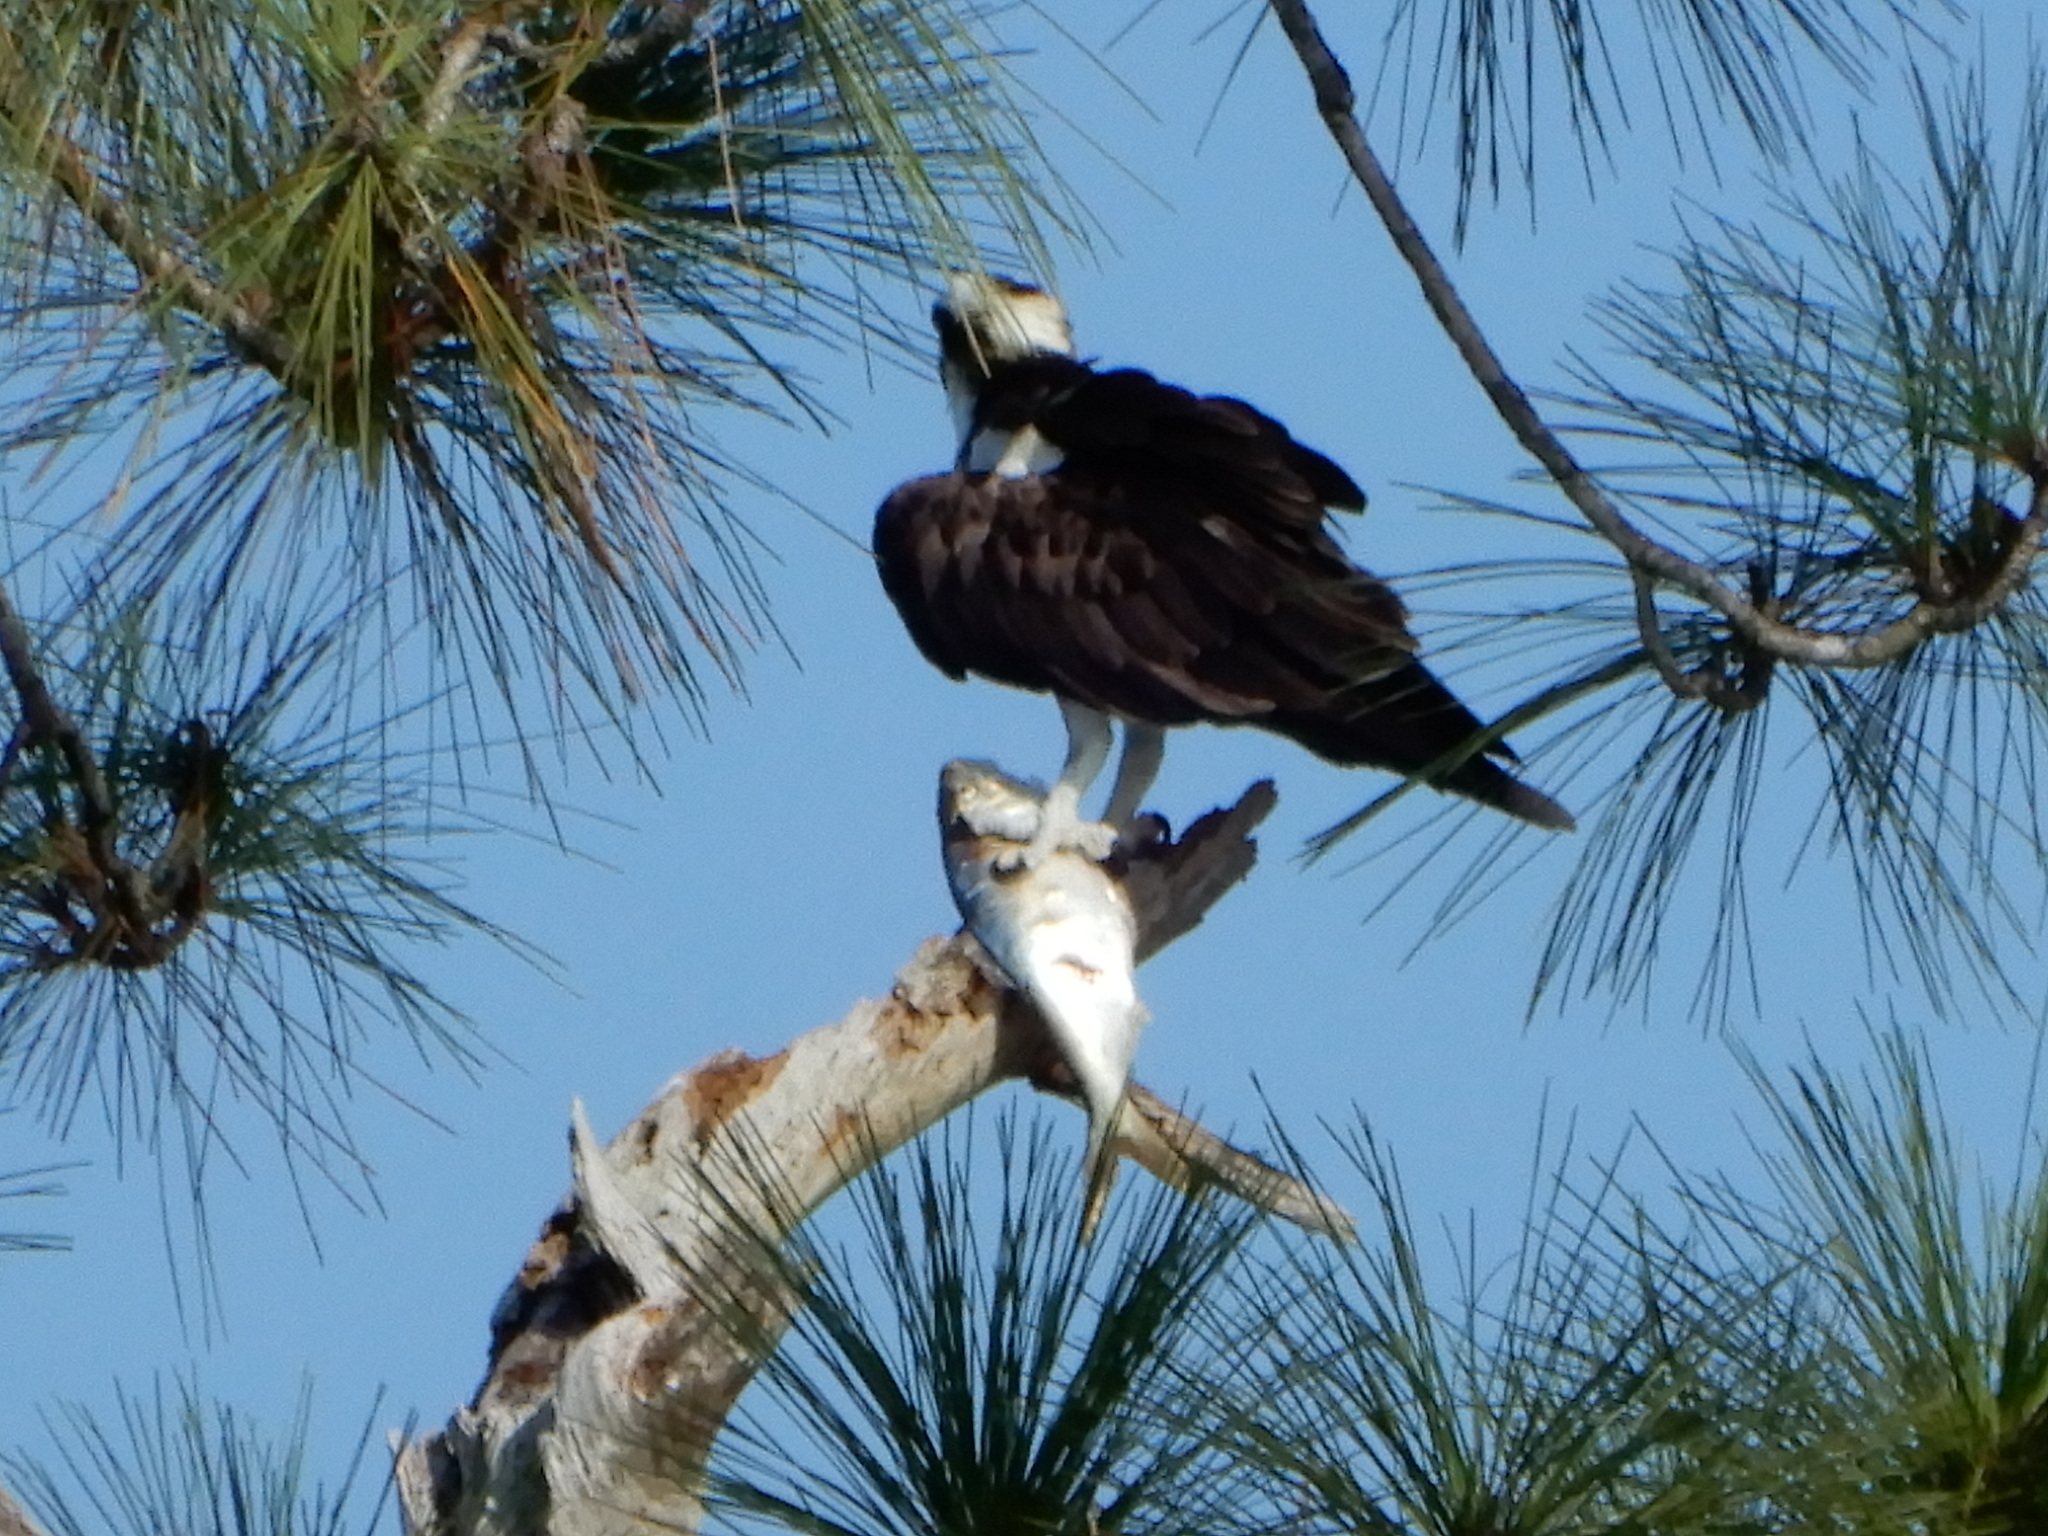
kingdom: Animalia
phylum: Chordata
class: Aves
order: Accipitriformes
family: Pandionidae
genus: Pandion
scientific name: Pandion haliaetus
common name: Osprey
